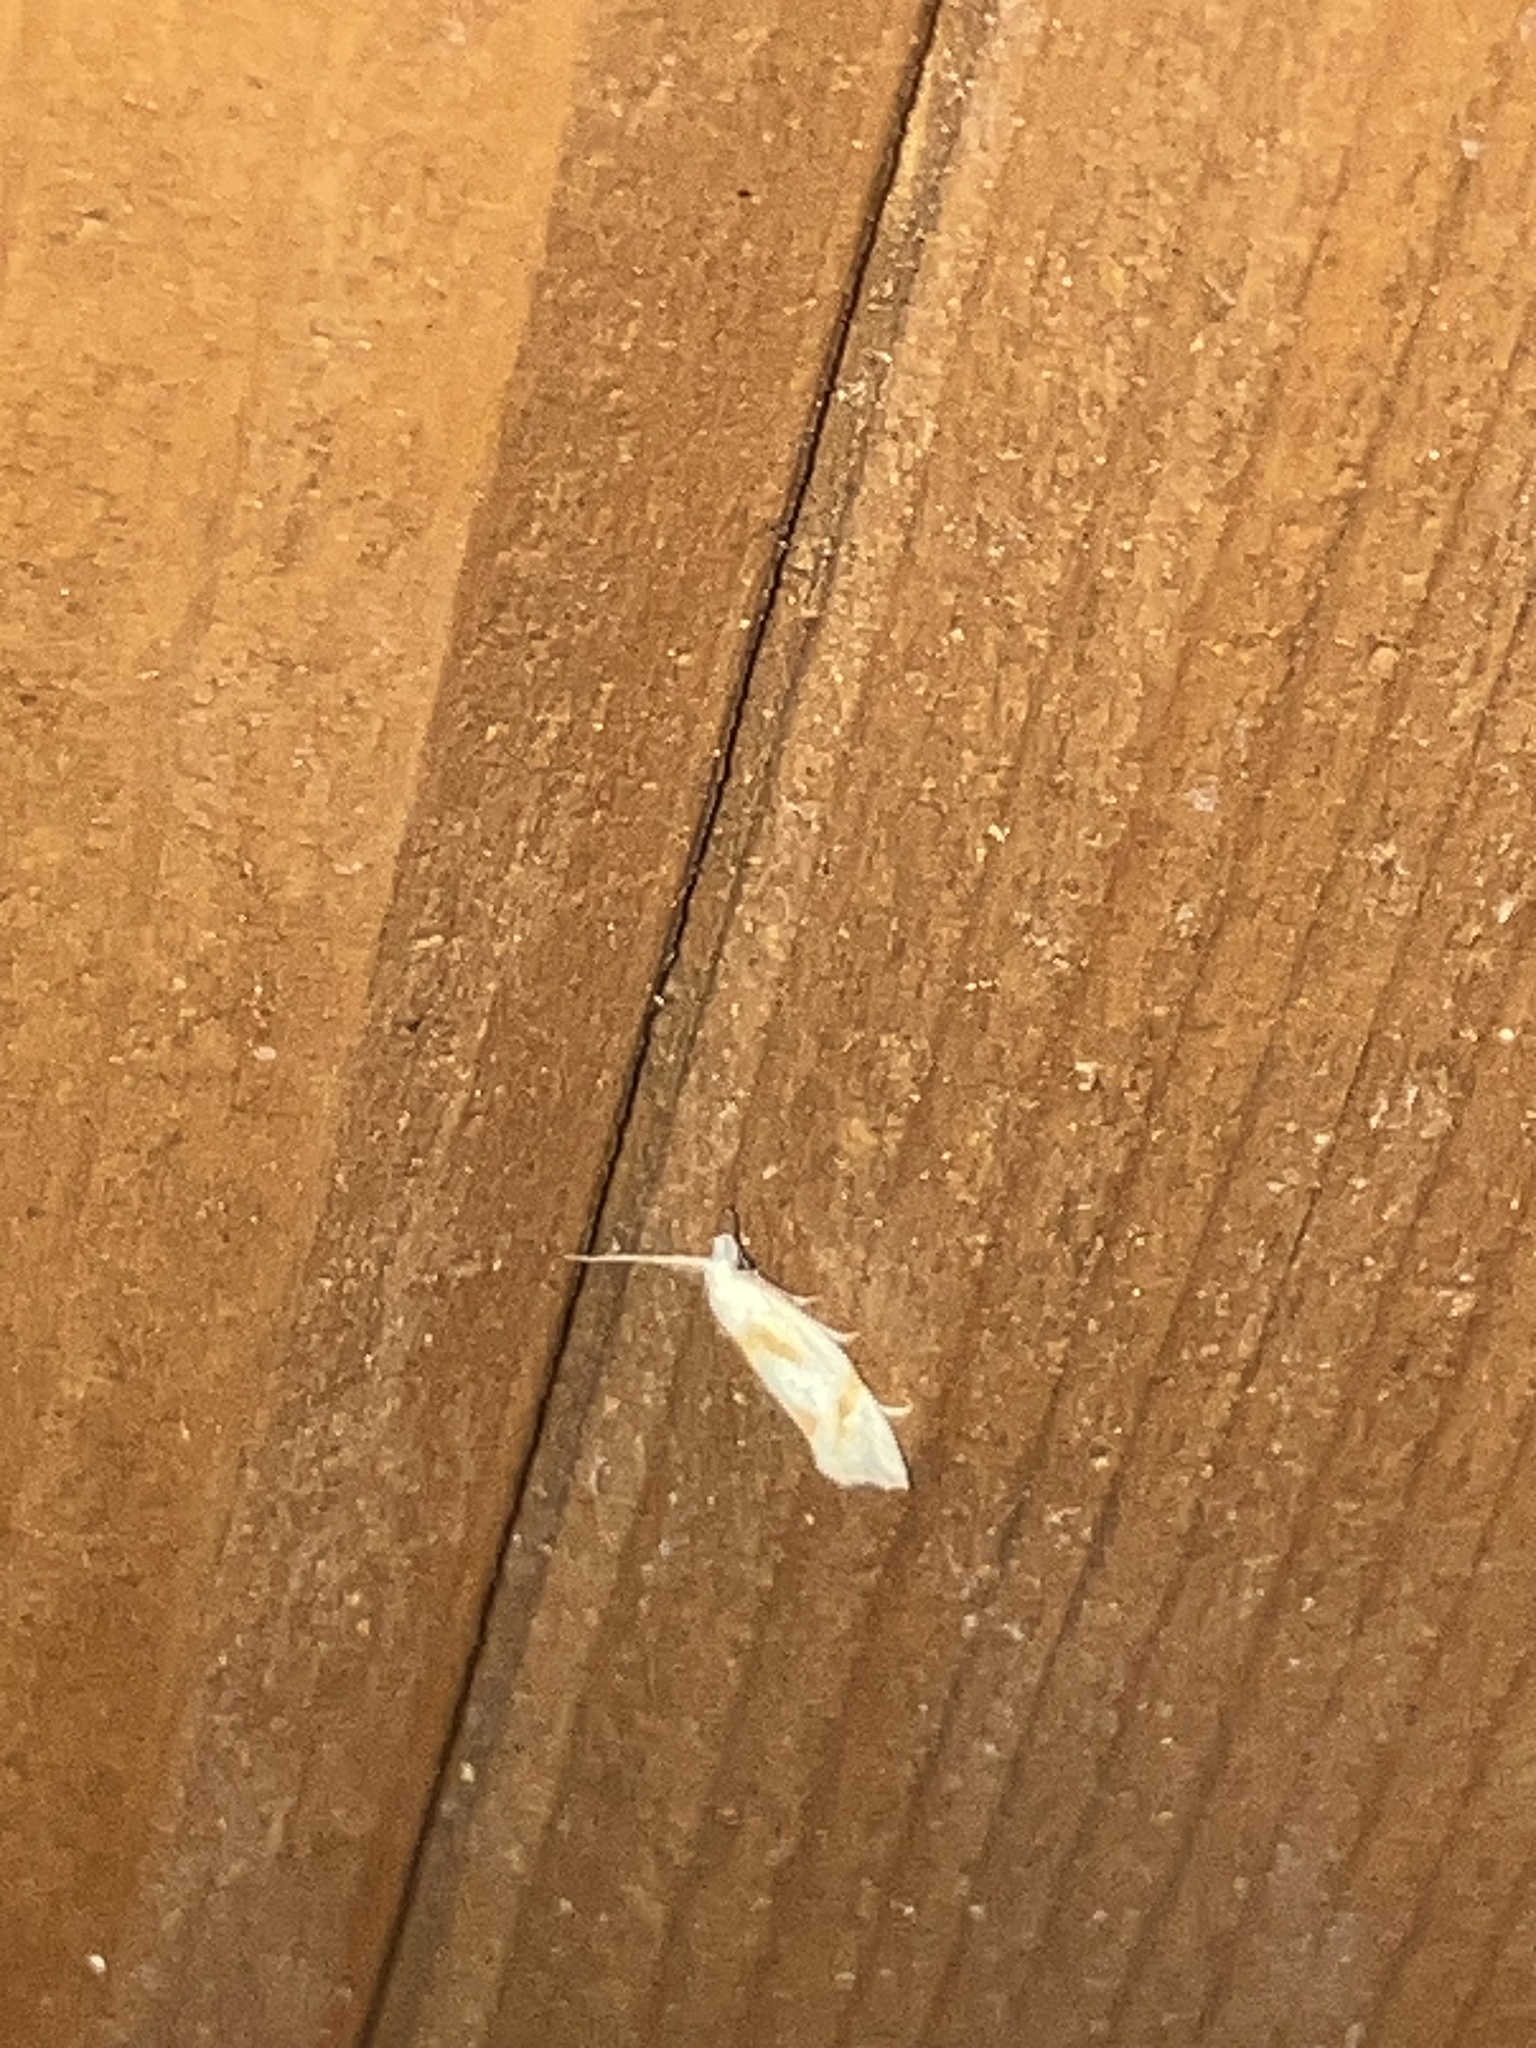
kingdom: Animalia
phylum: Arthropoda
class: Insecta
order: Lepidoptera
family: Tortricidae
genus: Aethes
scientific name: Aethes seriatana
